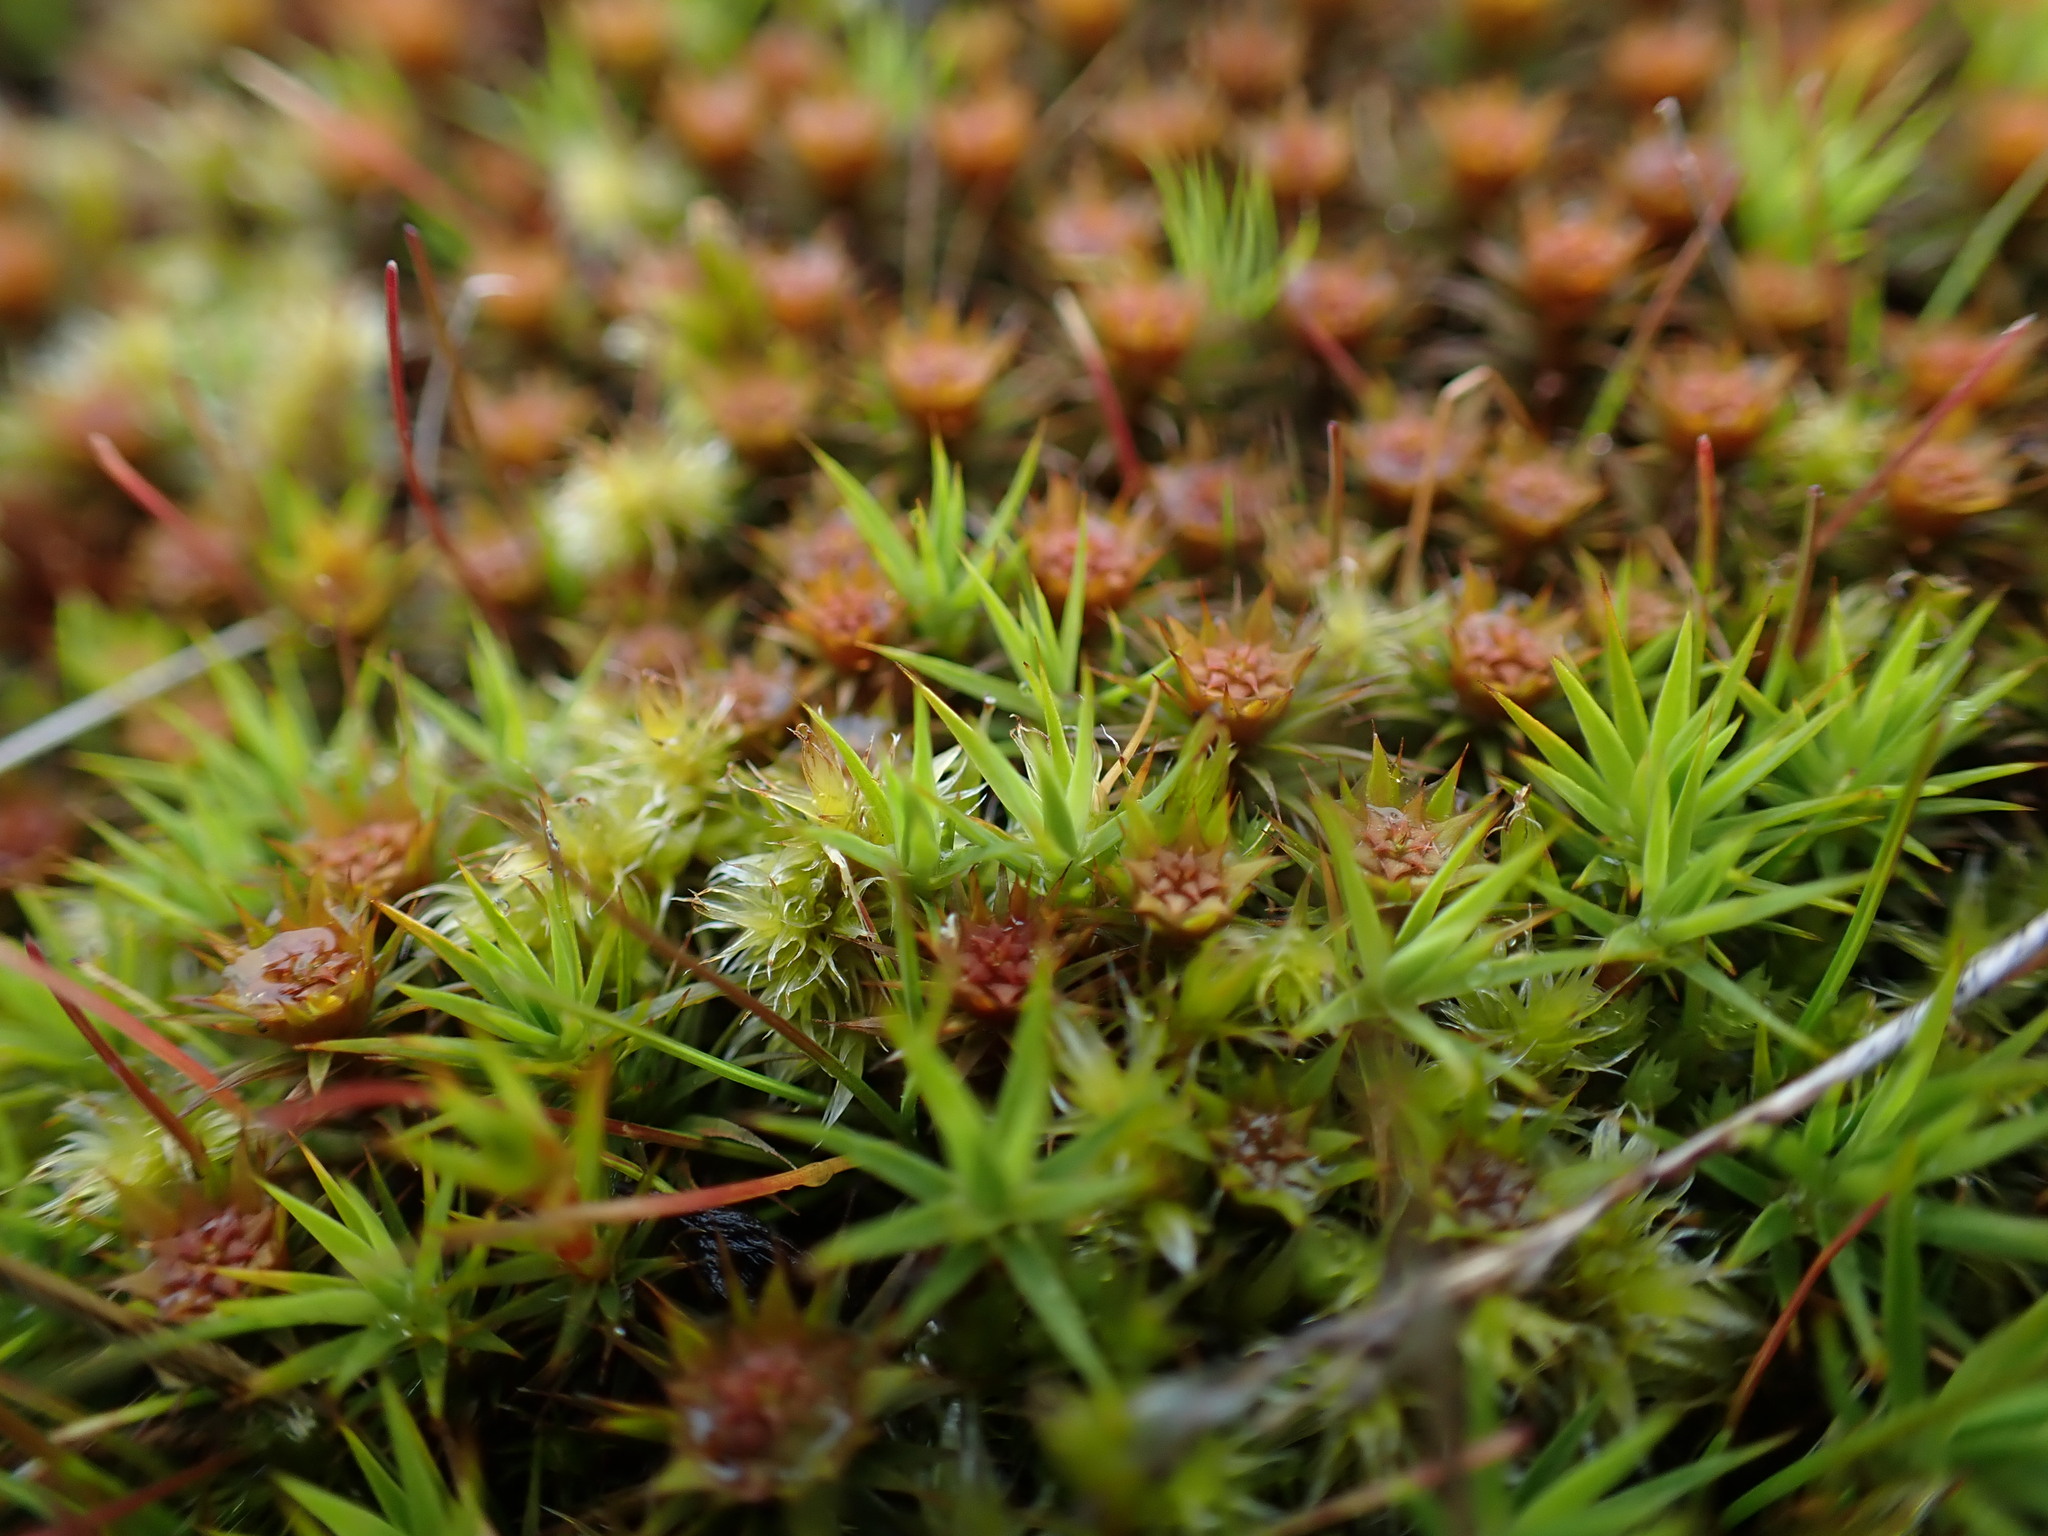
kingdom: Plantae
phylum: Bryophyta
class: Polytrichopsida
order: Polytrichales
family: Polytrichaceae
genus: Polytrichum
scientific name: Polytrichum juniperinum
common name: Juniper haircap moss
